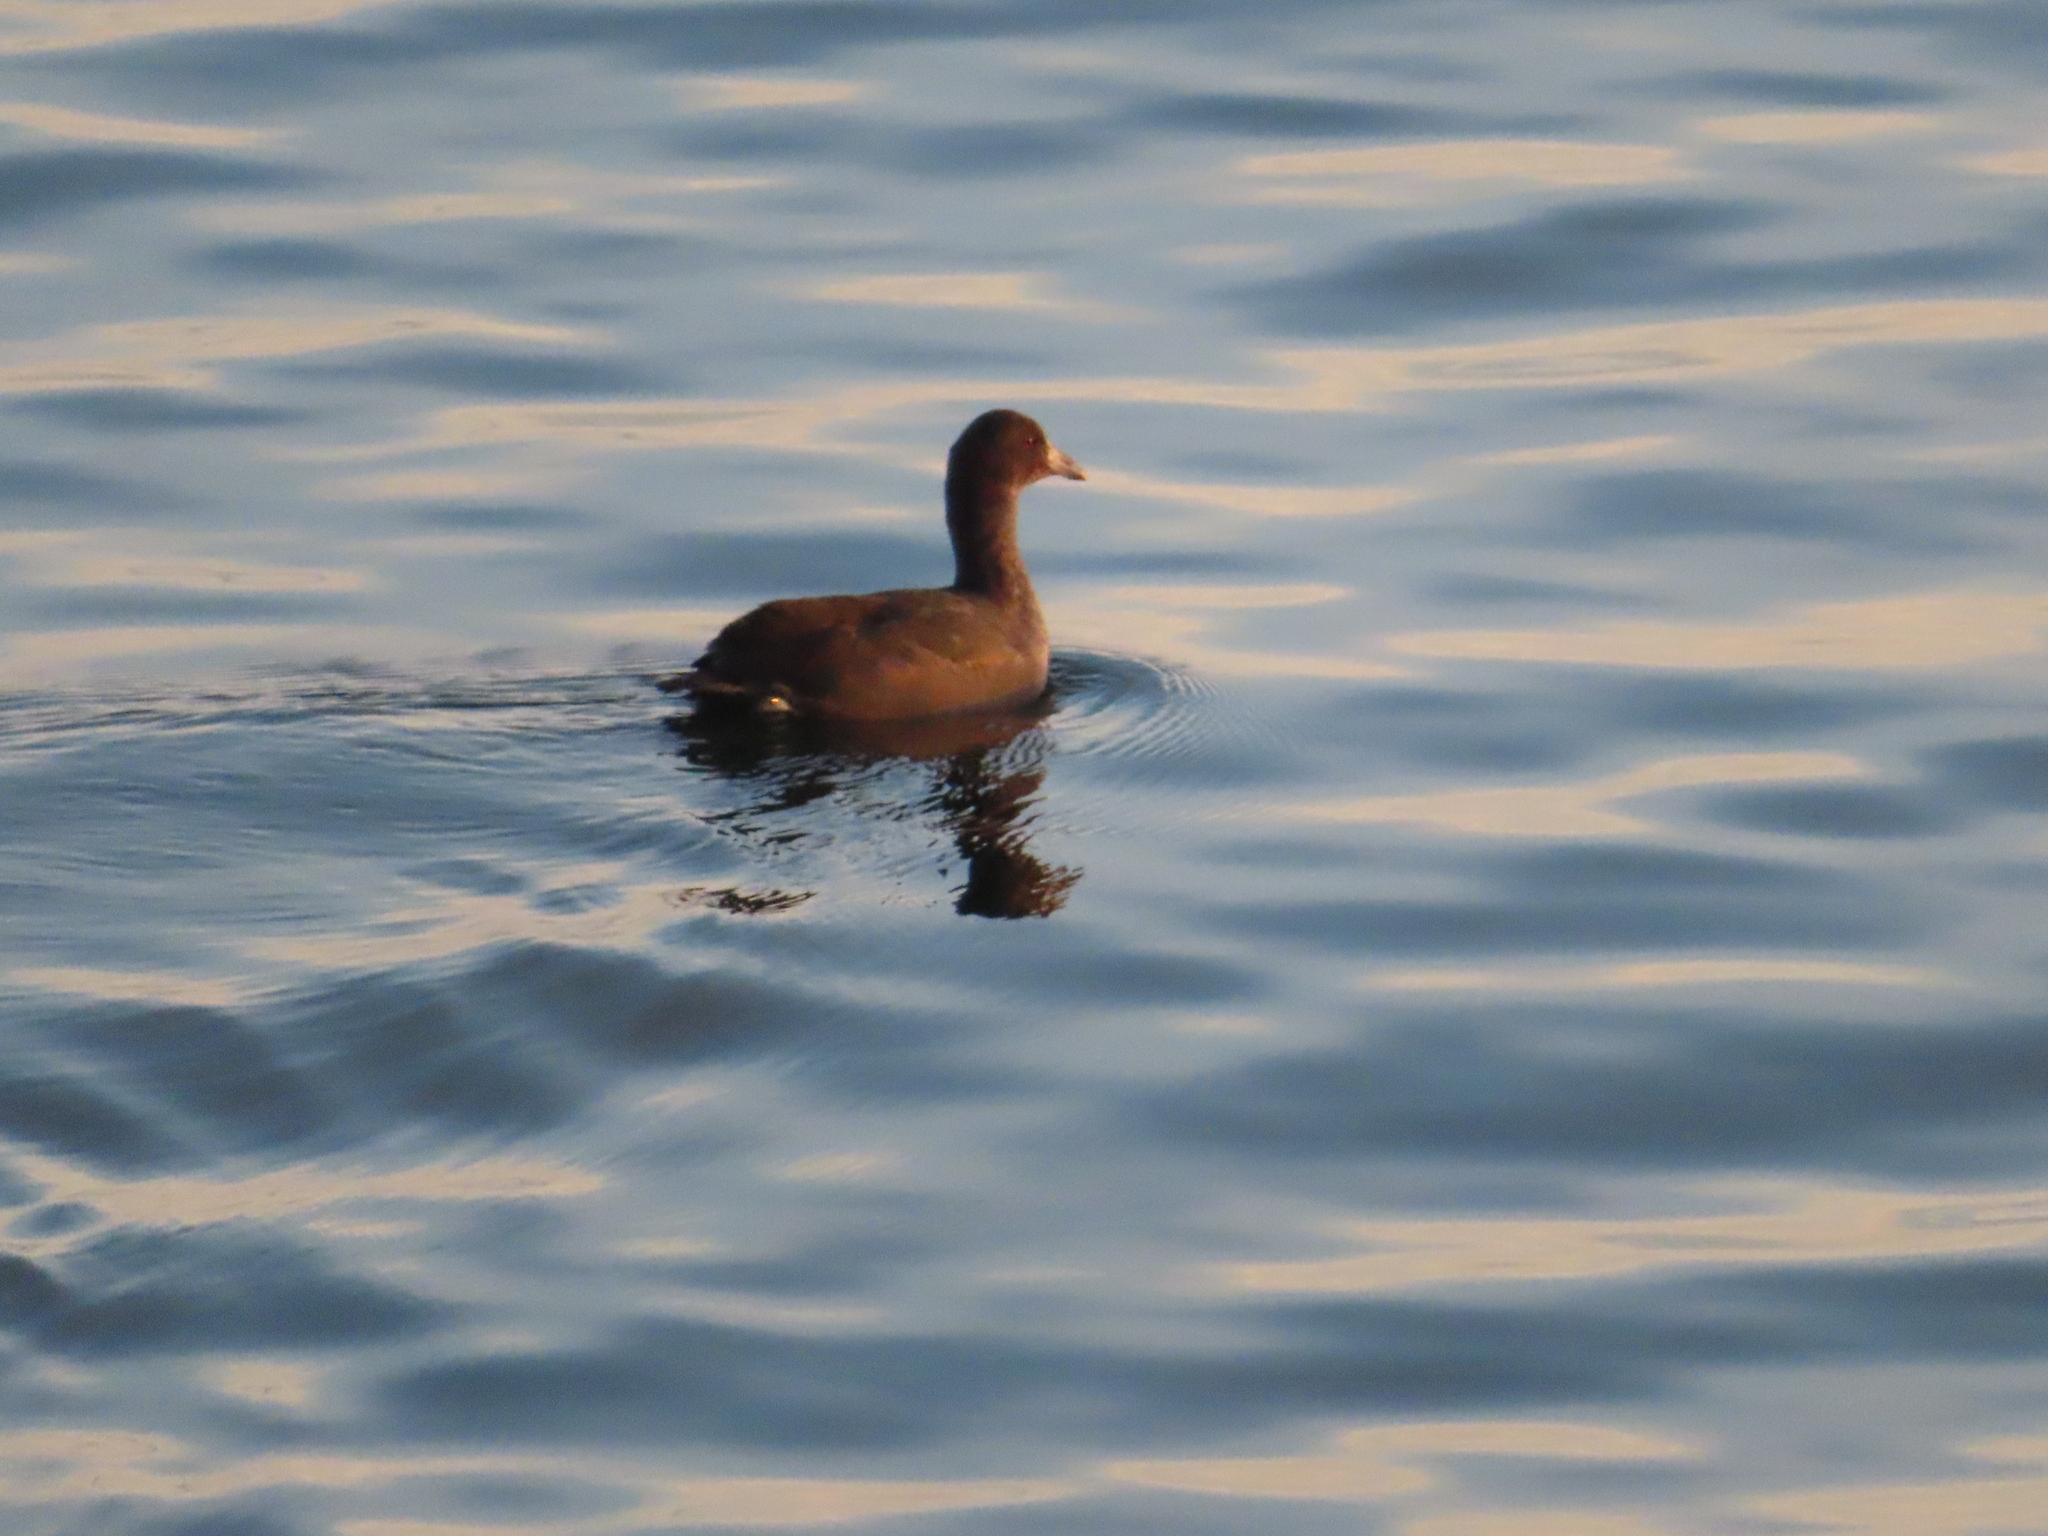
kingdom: Animalia
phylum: Chordata
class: Aves
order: Gruiformes
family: Rallidae
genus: Fulica
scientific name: Fulica americana
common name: American coot
